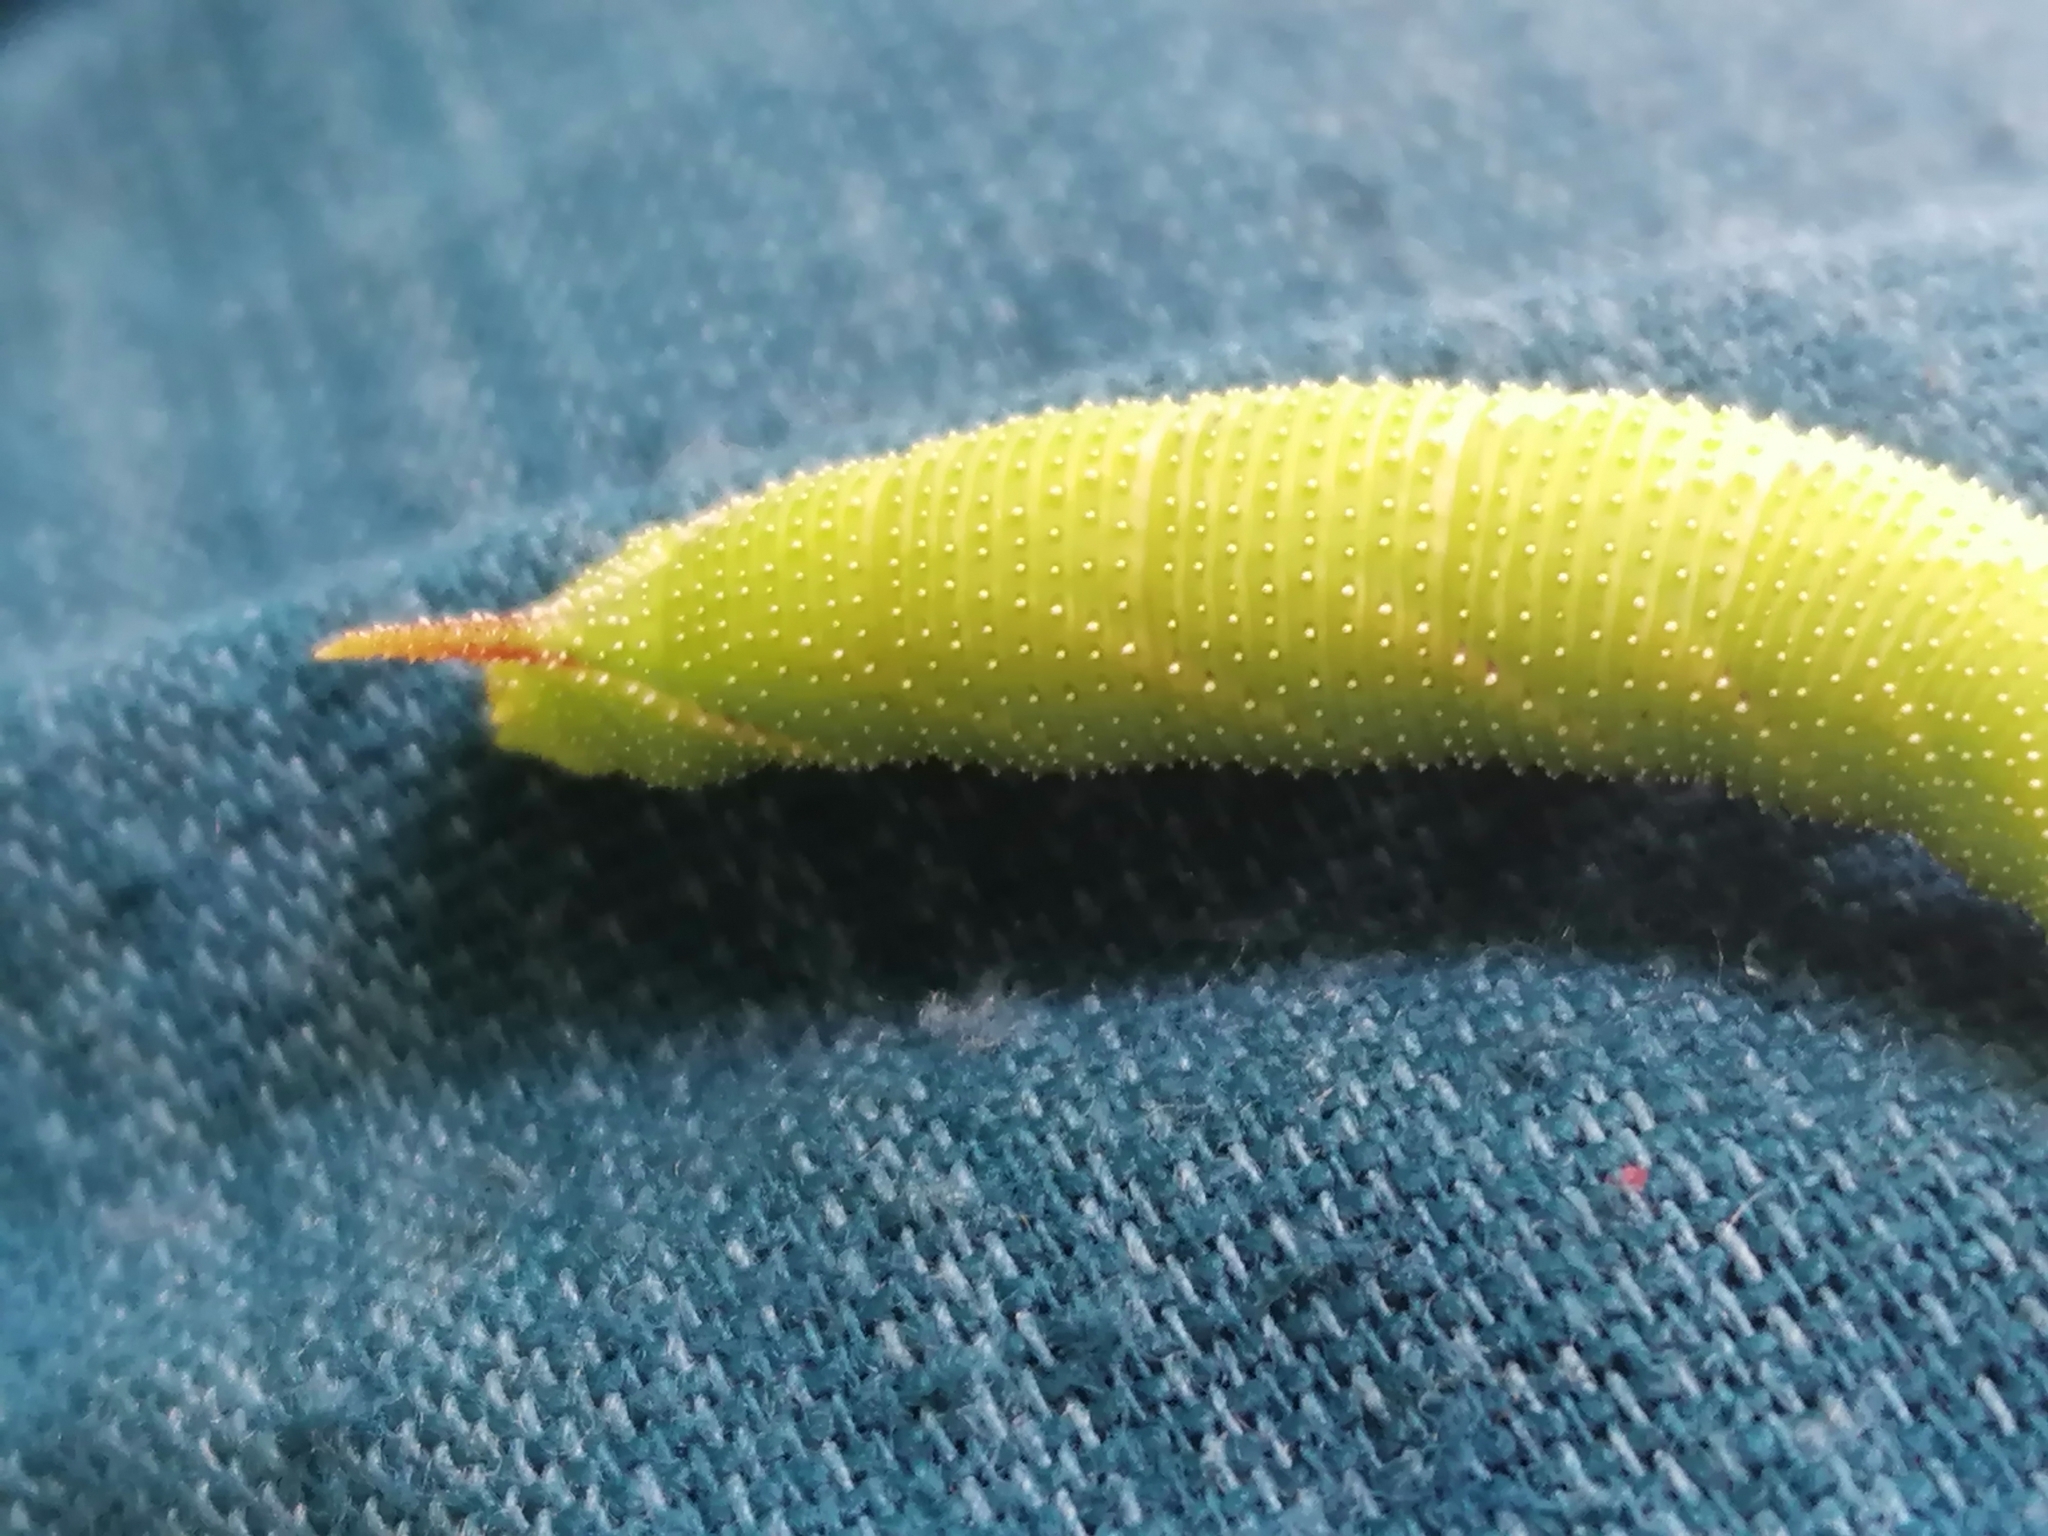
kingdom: Animalia
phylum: Arthropoda
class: Insecta
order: Lepidoptera
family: Sphingidae
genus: Amorpha
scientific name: Amorpha juglandis
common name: Walnut sphinx
